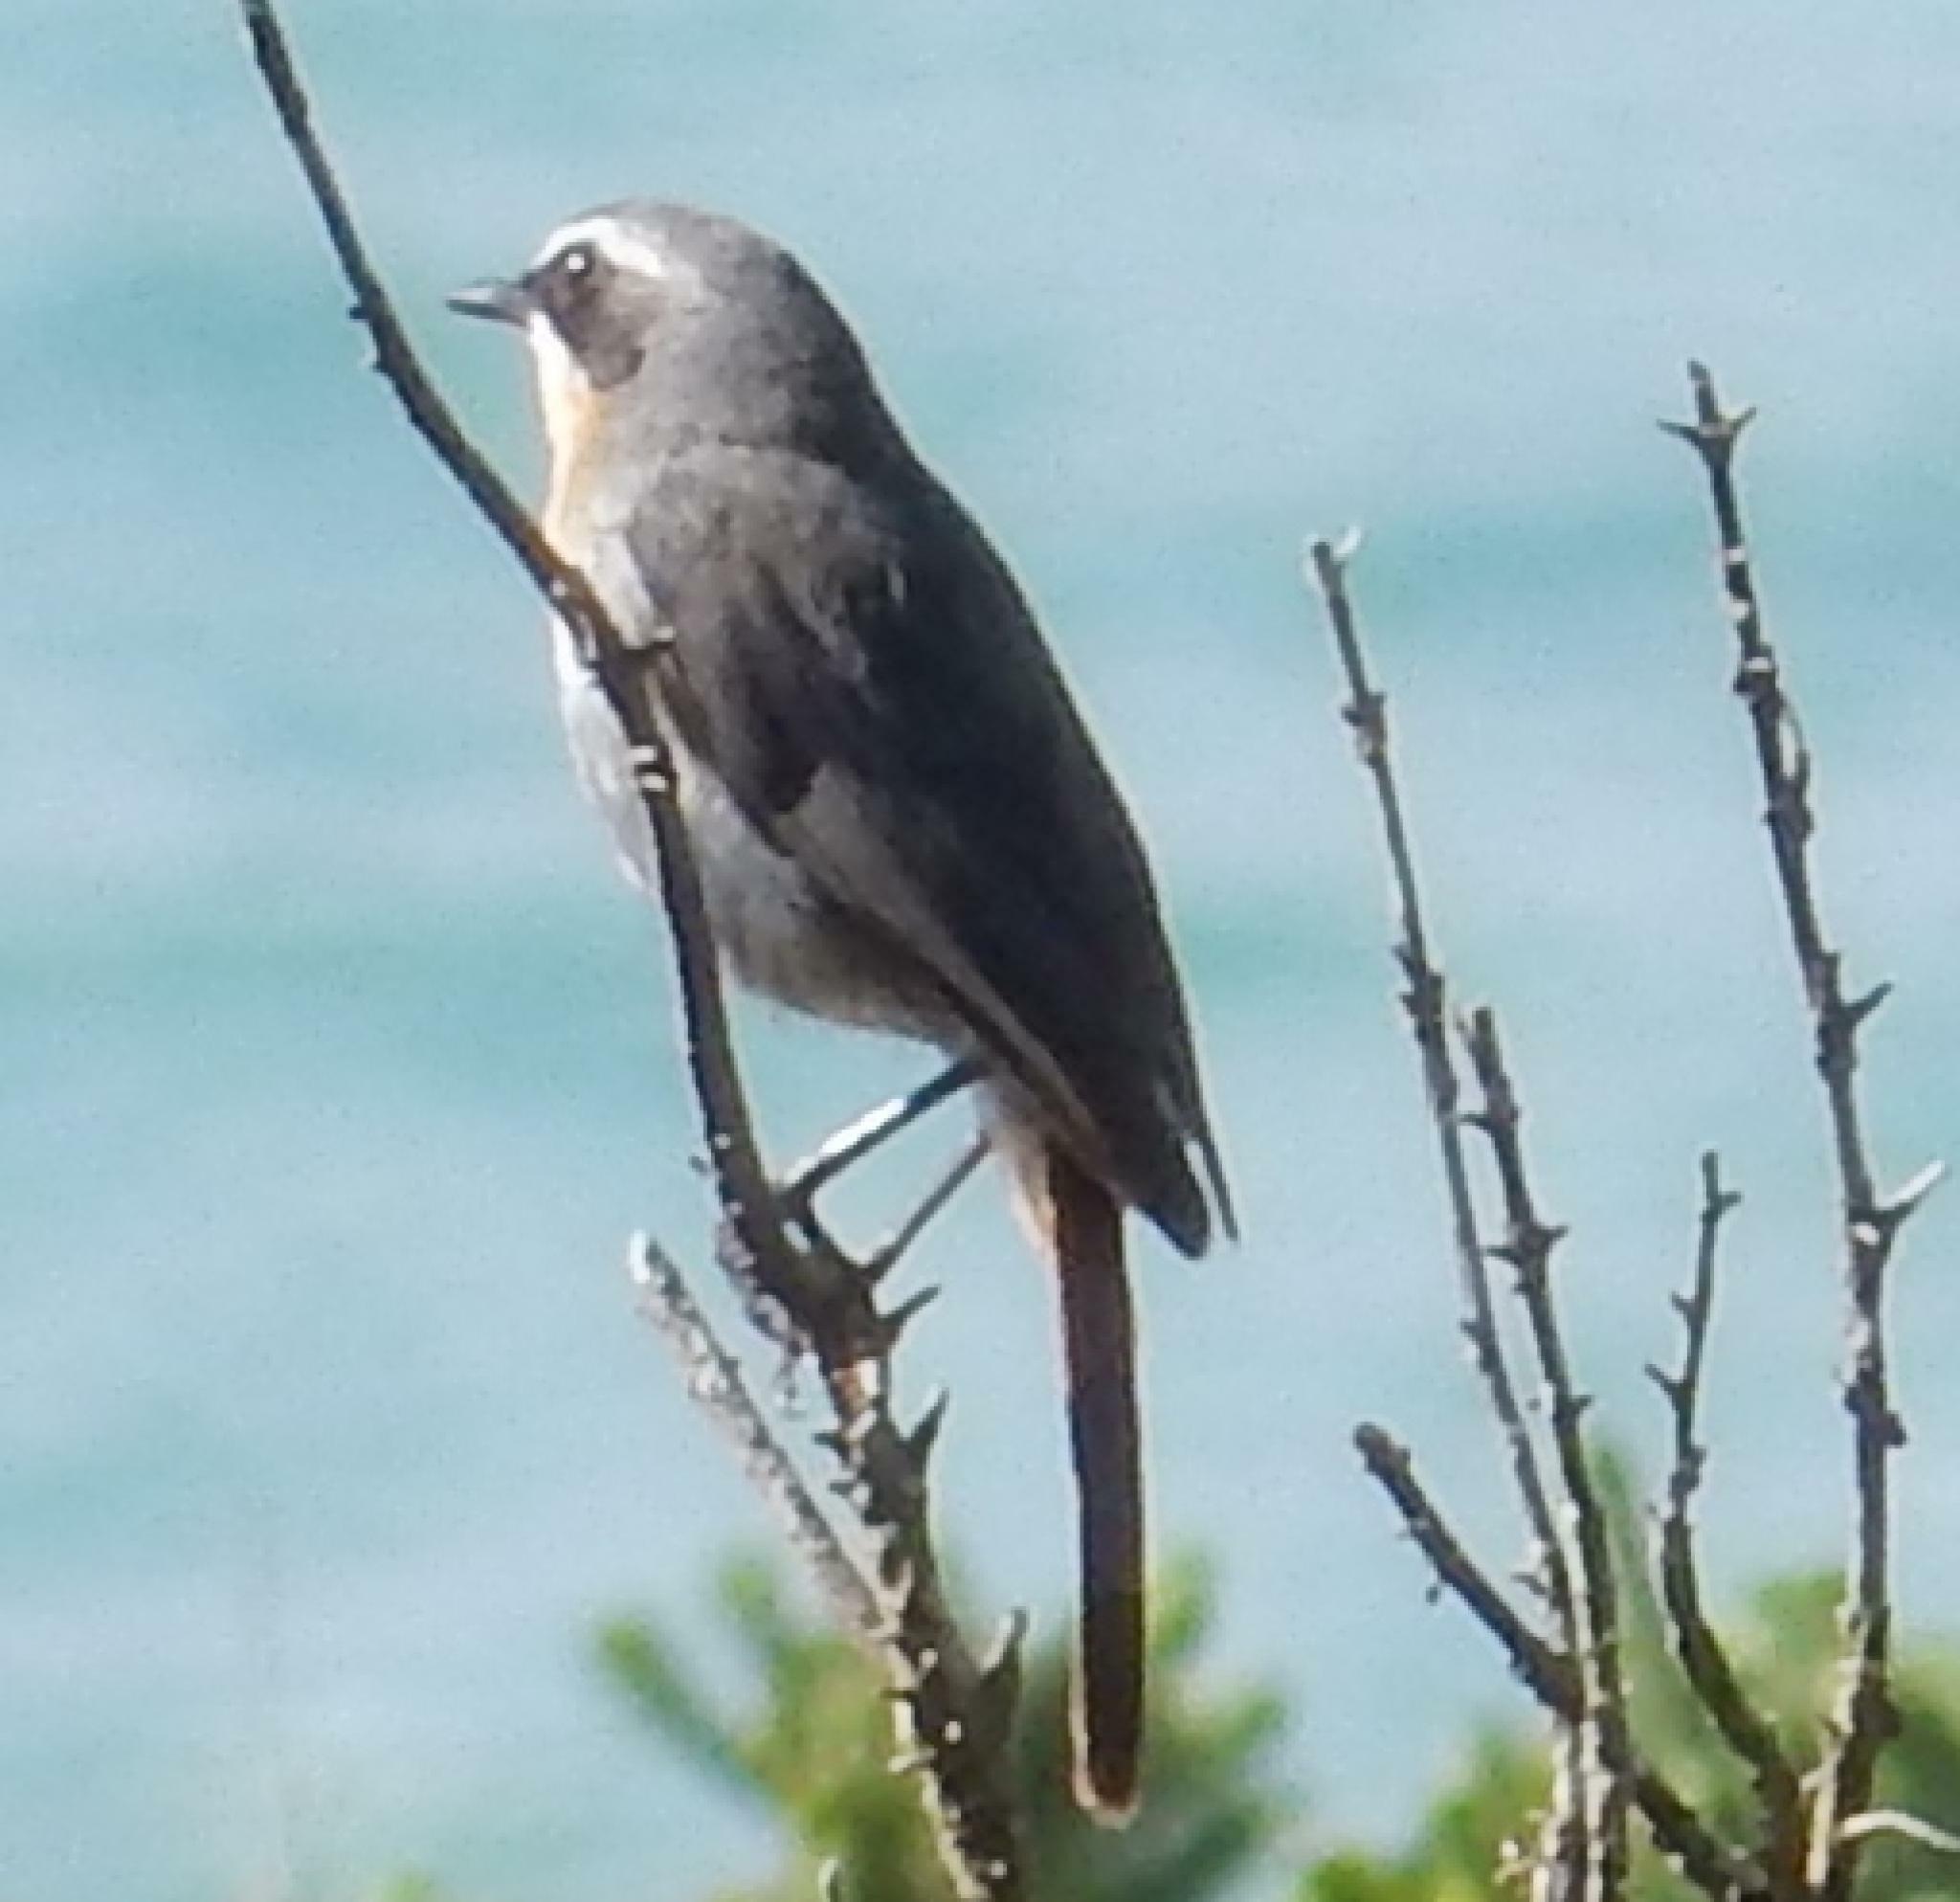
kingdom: Animalia
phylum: Chordata
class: Aves
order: Passeriformes
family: Muscicapidae
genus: Cossypha
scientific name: Cossypha caffra
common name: Cape robin-chat
